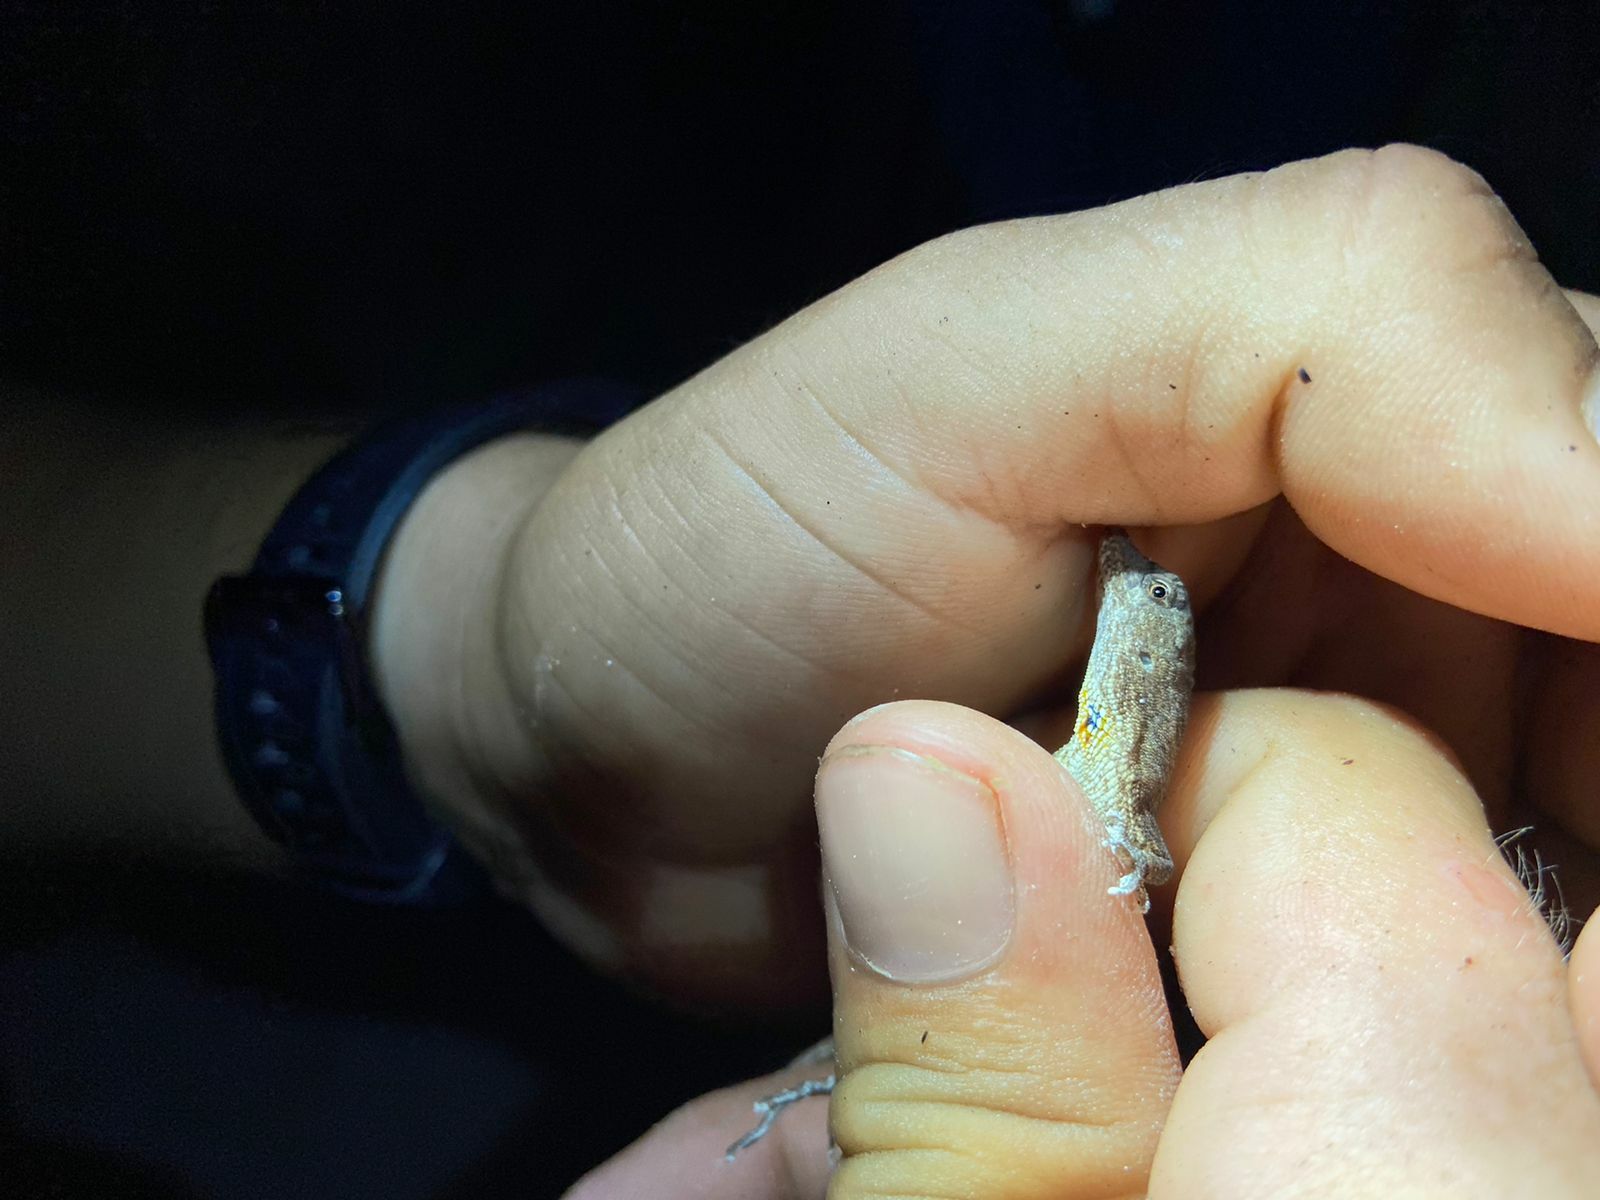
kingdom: Animalia
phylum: Chordata
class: Squamata
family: Dactyloidae
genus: Anolis
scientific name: Anolis ustus
